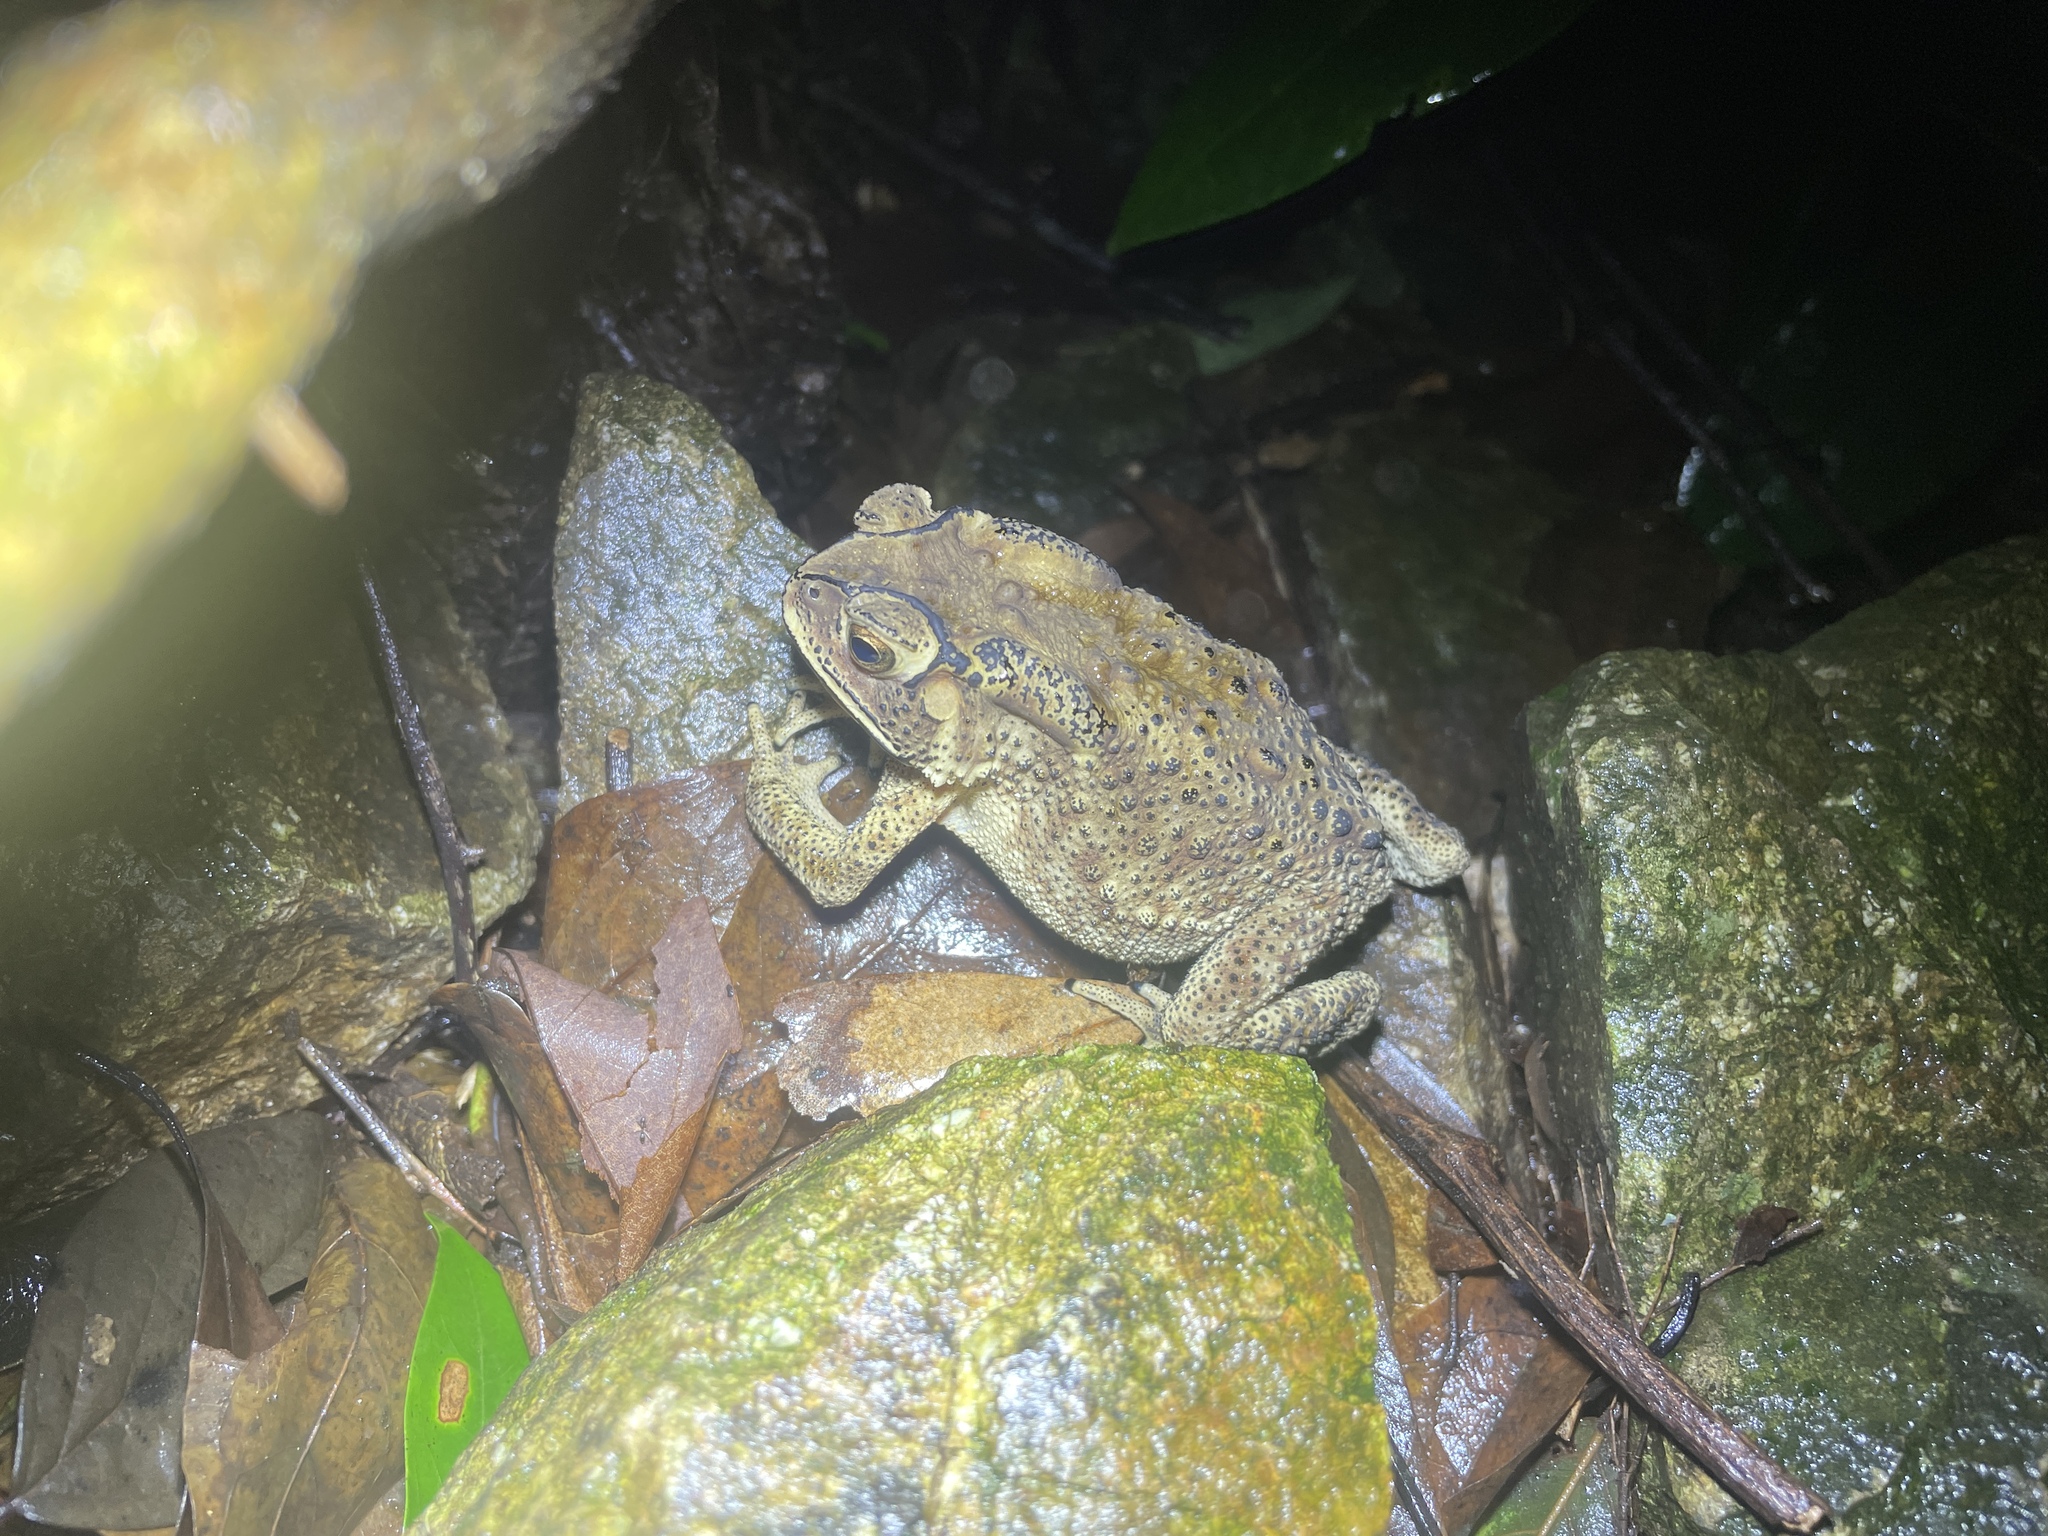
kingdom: Animalia
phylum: Chordata
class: Amphibia
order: Anura
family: Bufonidae
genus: Duttaphrynus
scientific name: Duttaphrynus melanostictus
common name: Common sunda toad
